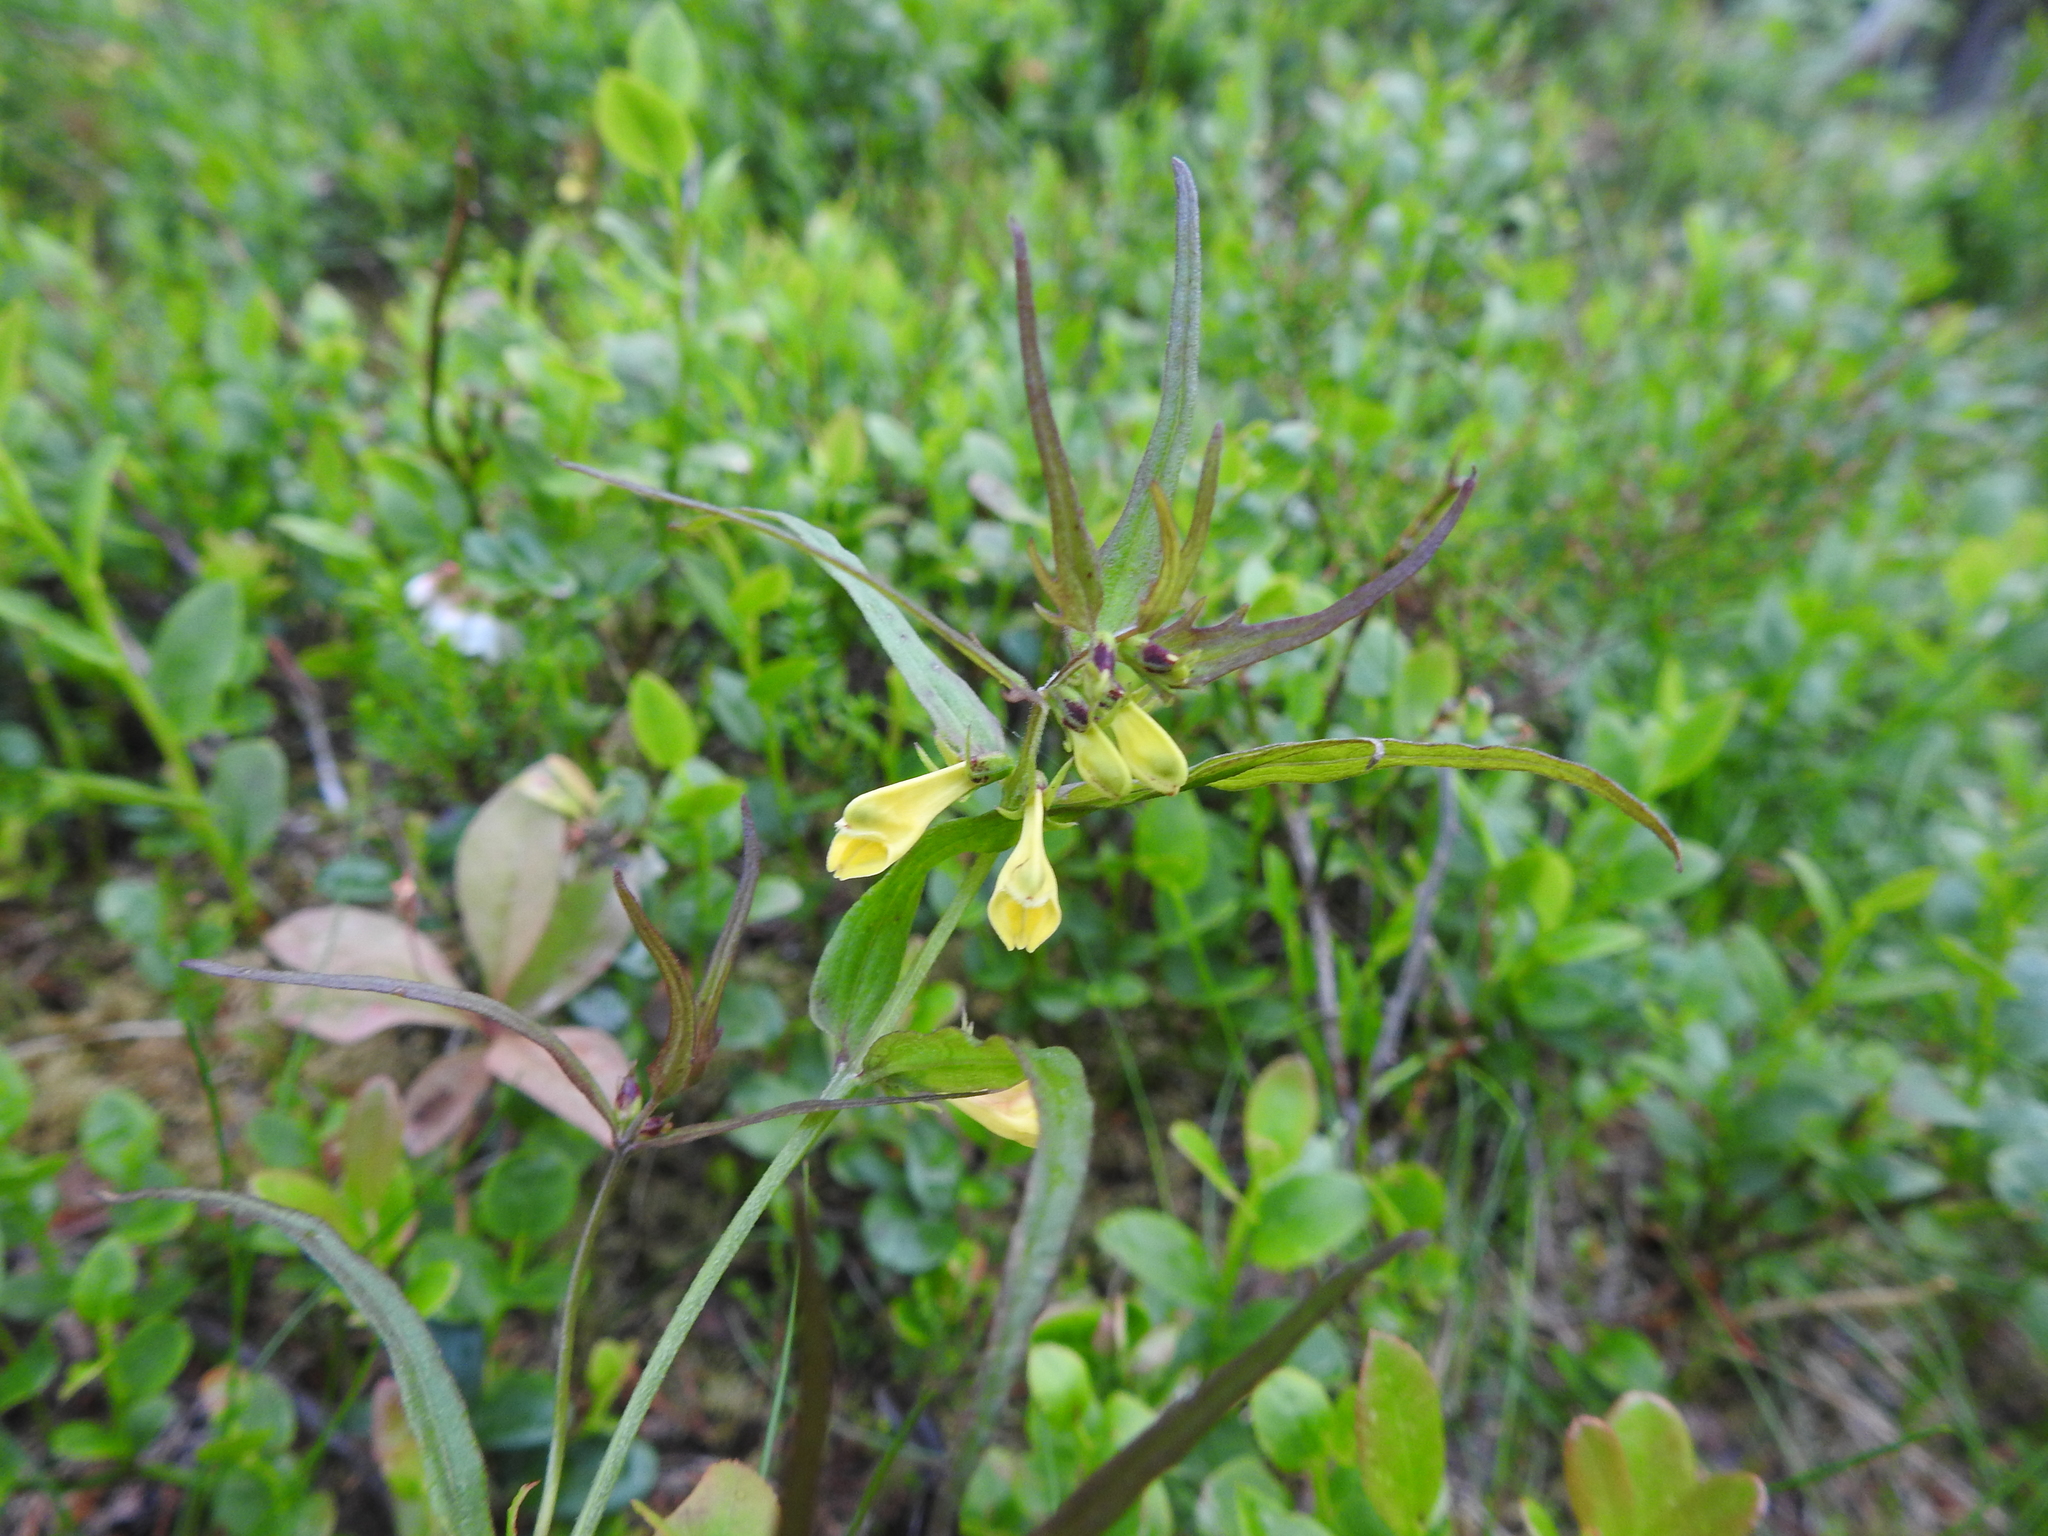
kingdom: Plantae
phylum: Tracheophyta
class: Magnoliopsida
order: Lamiales
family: Orobanchaceae
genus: Melampyrum
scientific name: Melampyrum pratense
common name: Common cow-wheat
